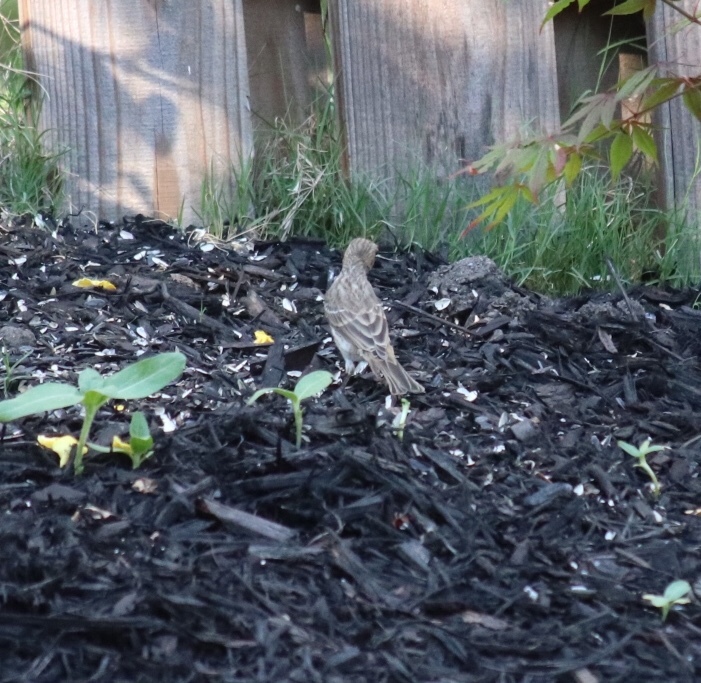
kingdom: Animalia
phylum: Chordata
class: Aves
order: Passeriformes
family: Fringillidae
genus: Haemorhous
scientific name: Haemorhous mexicanus
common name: House finch
